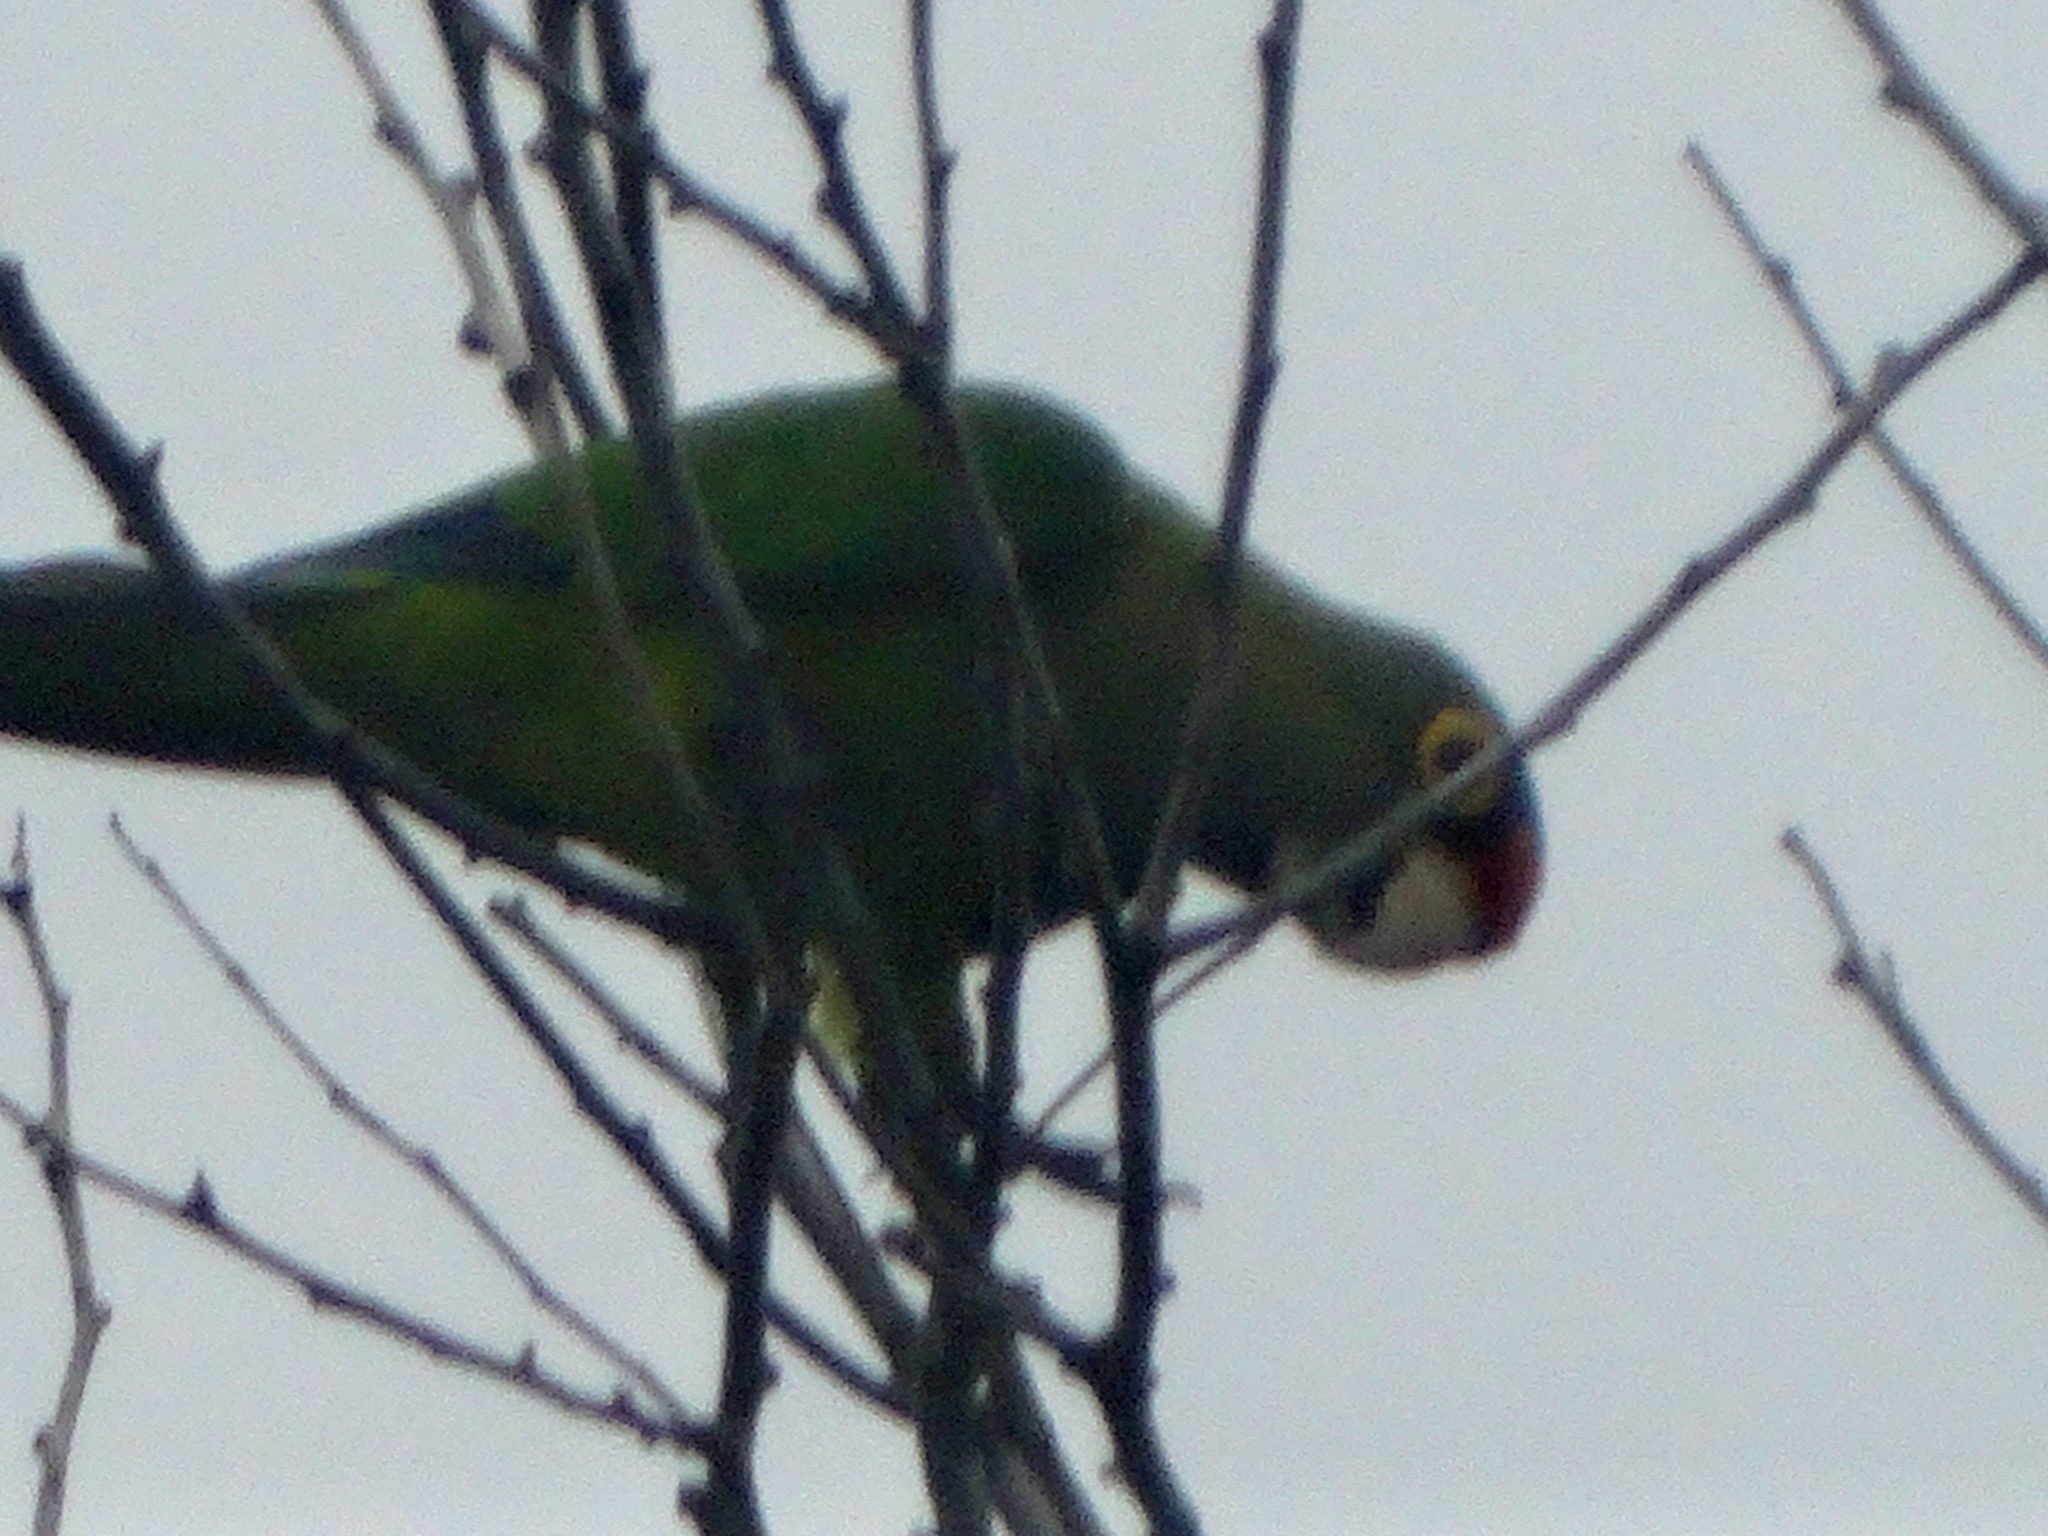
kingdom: Animalia
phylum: Chordata
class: Aves
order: Psittaciformes
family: Psittacidae
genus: Aratinga
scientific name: Aratinga canicularis
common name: Orange-fronted parakeet
